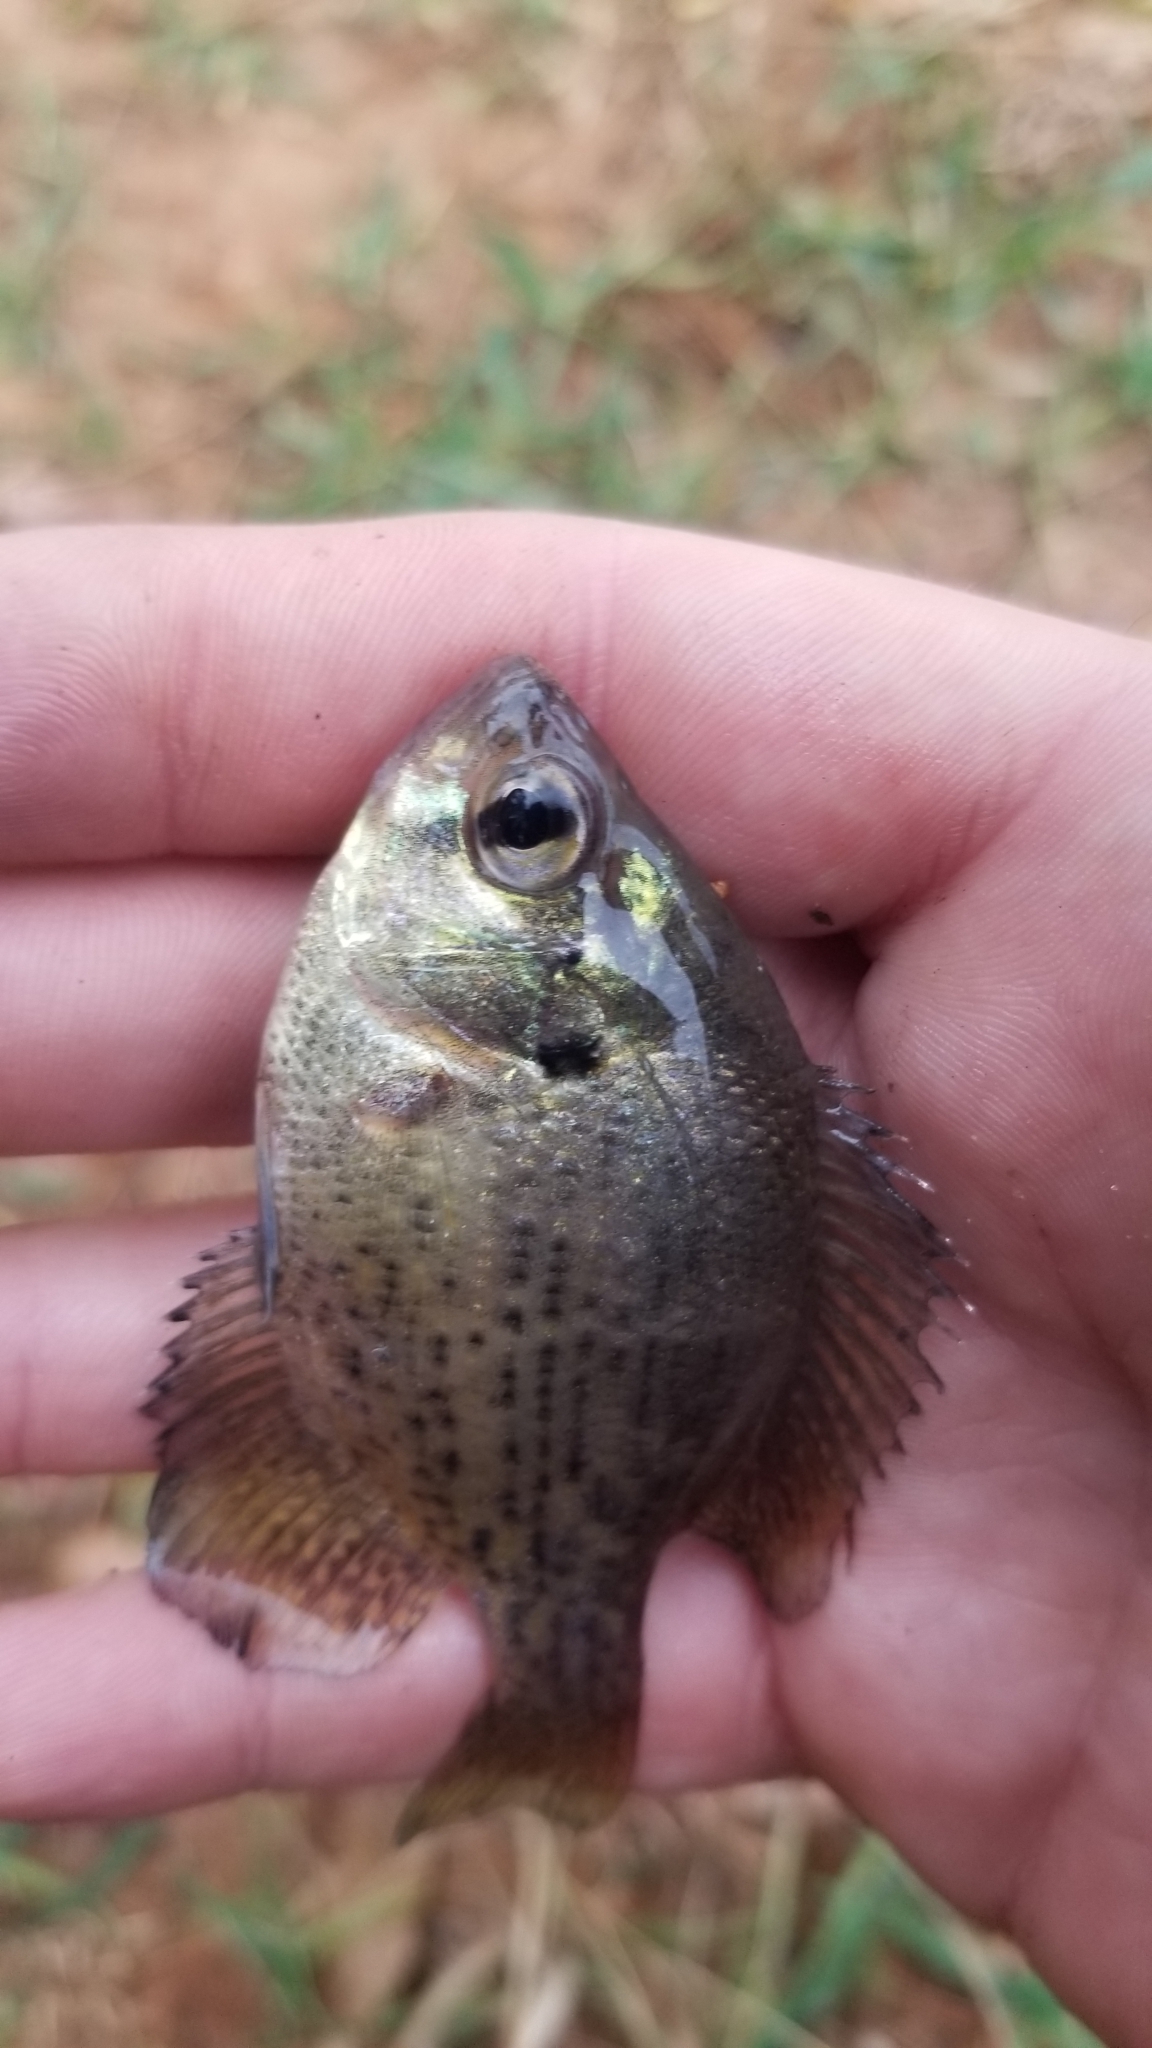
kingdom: Animalia
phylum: Chordata
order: Perciformes
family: Centrarchidae
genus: Centrarchus
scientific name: Centrarchus macropterus
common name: Flier
